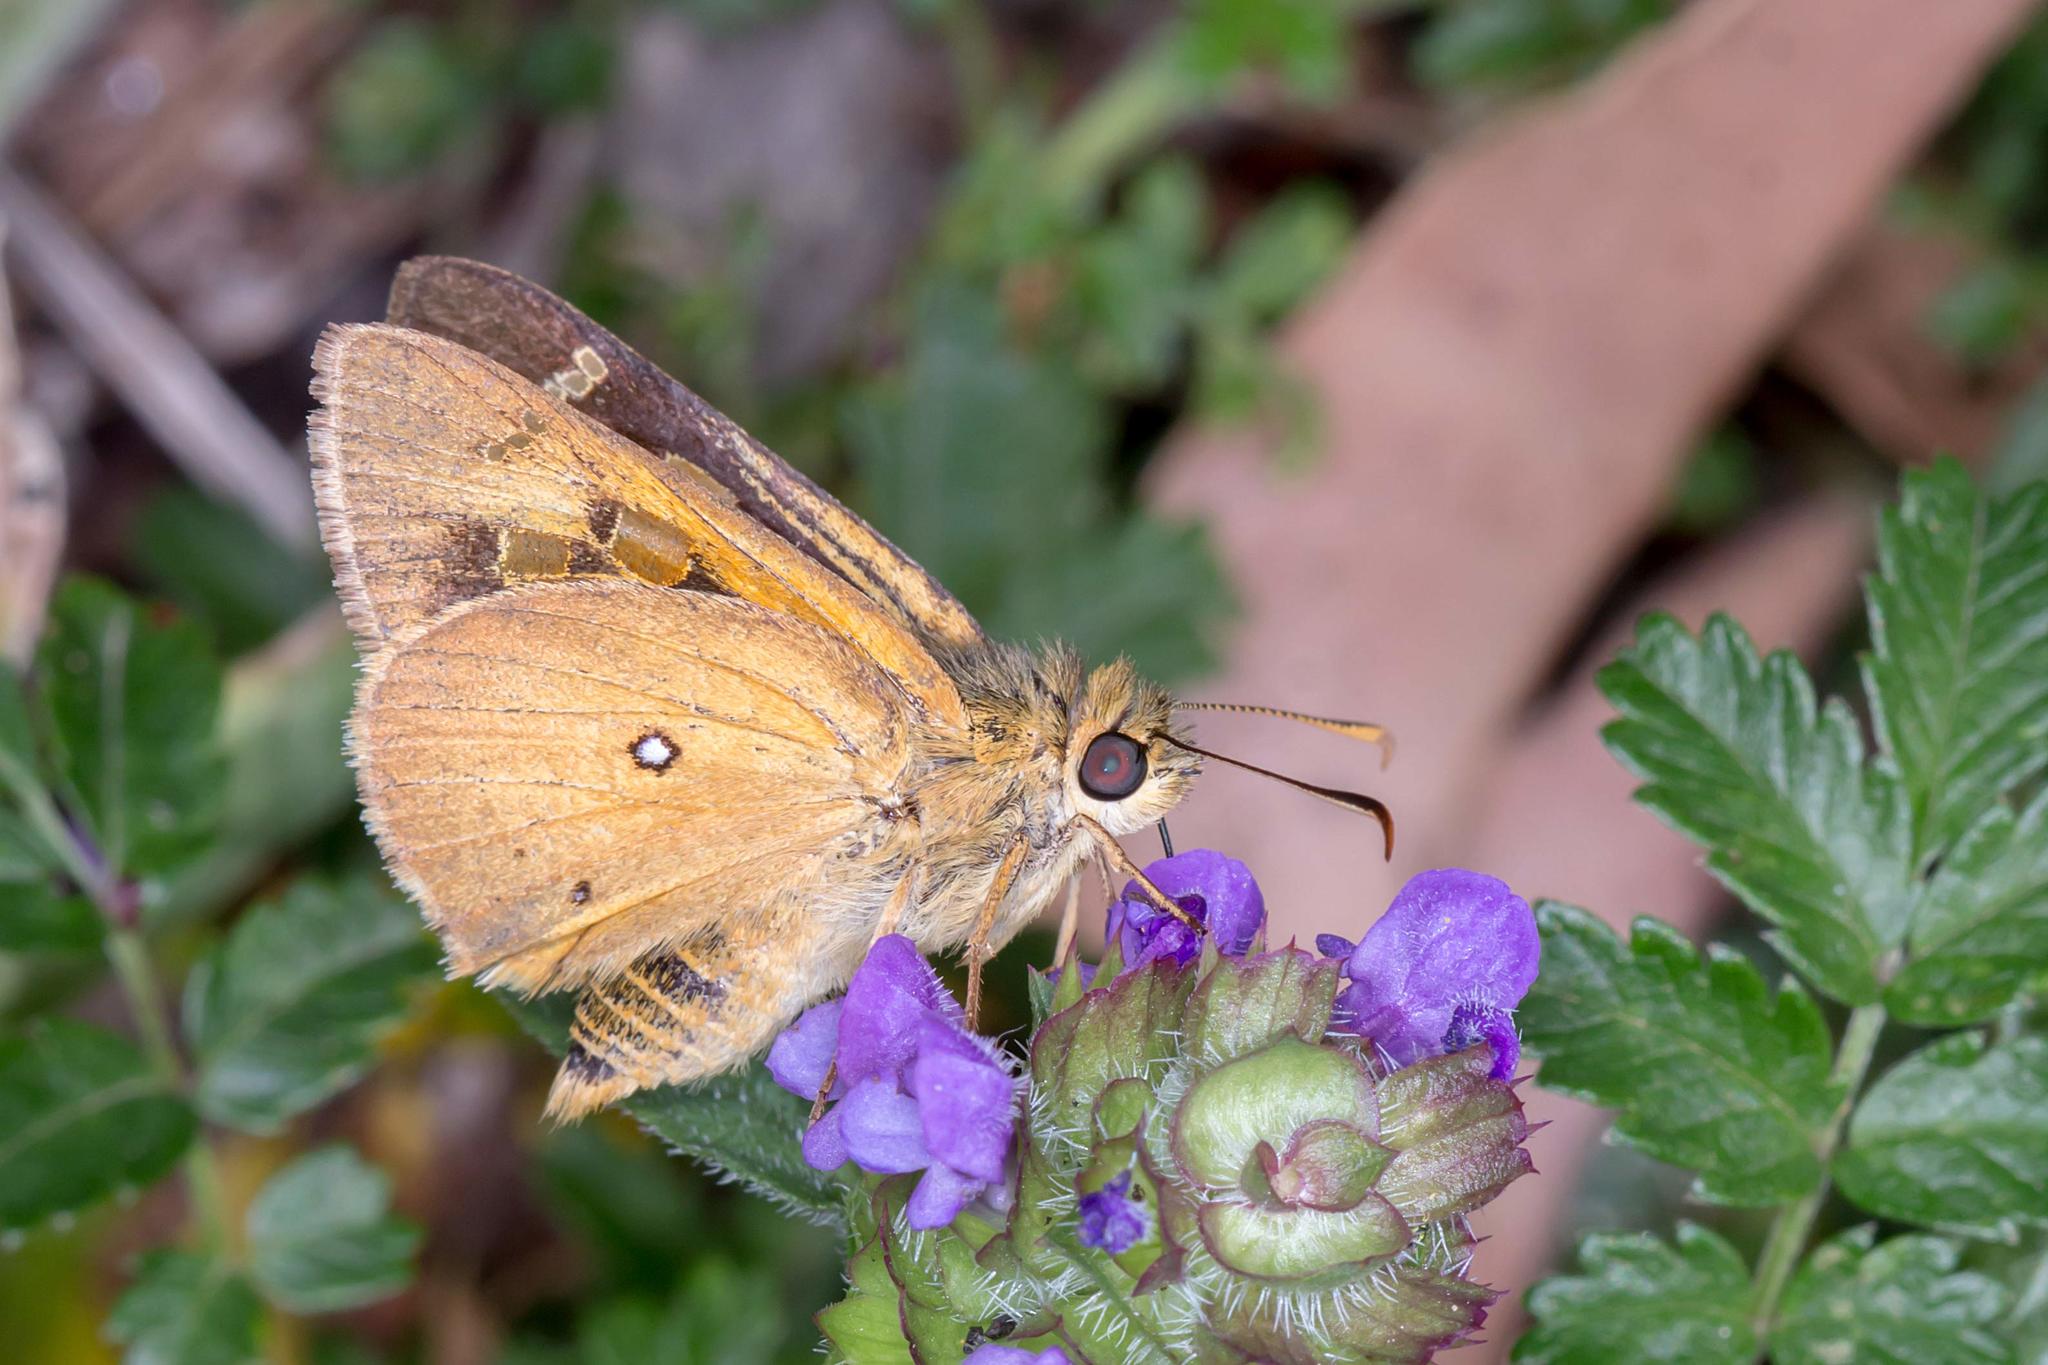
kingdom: Animalia
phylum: Arthropoda
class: Insecta
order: Lepidoptera
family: Hesperiidae
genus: Trapezites
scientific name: Trapezites lutea
